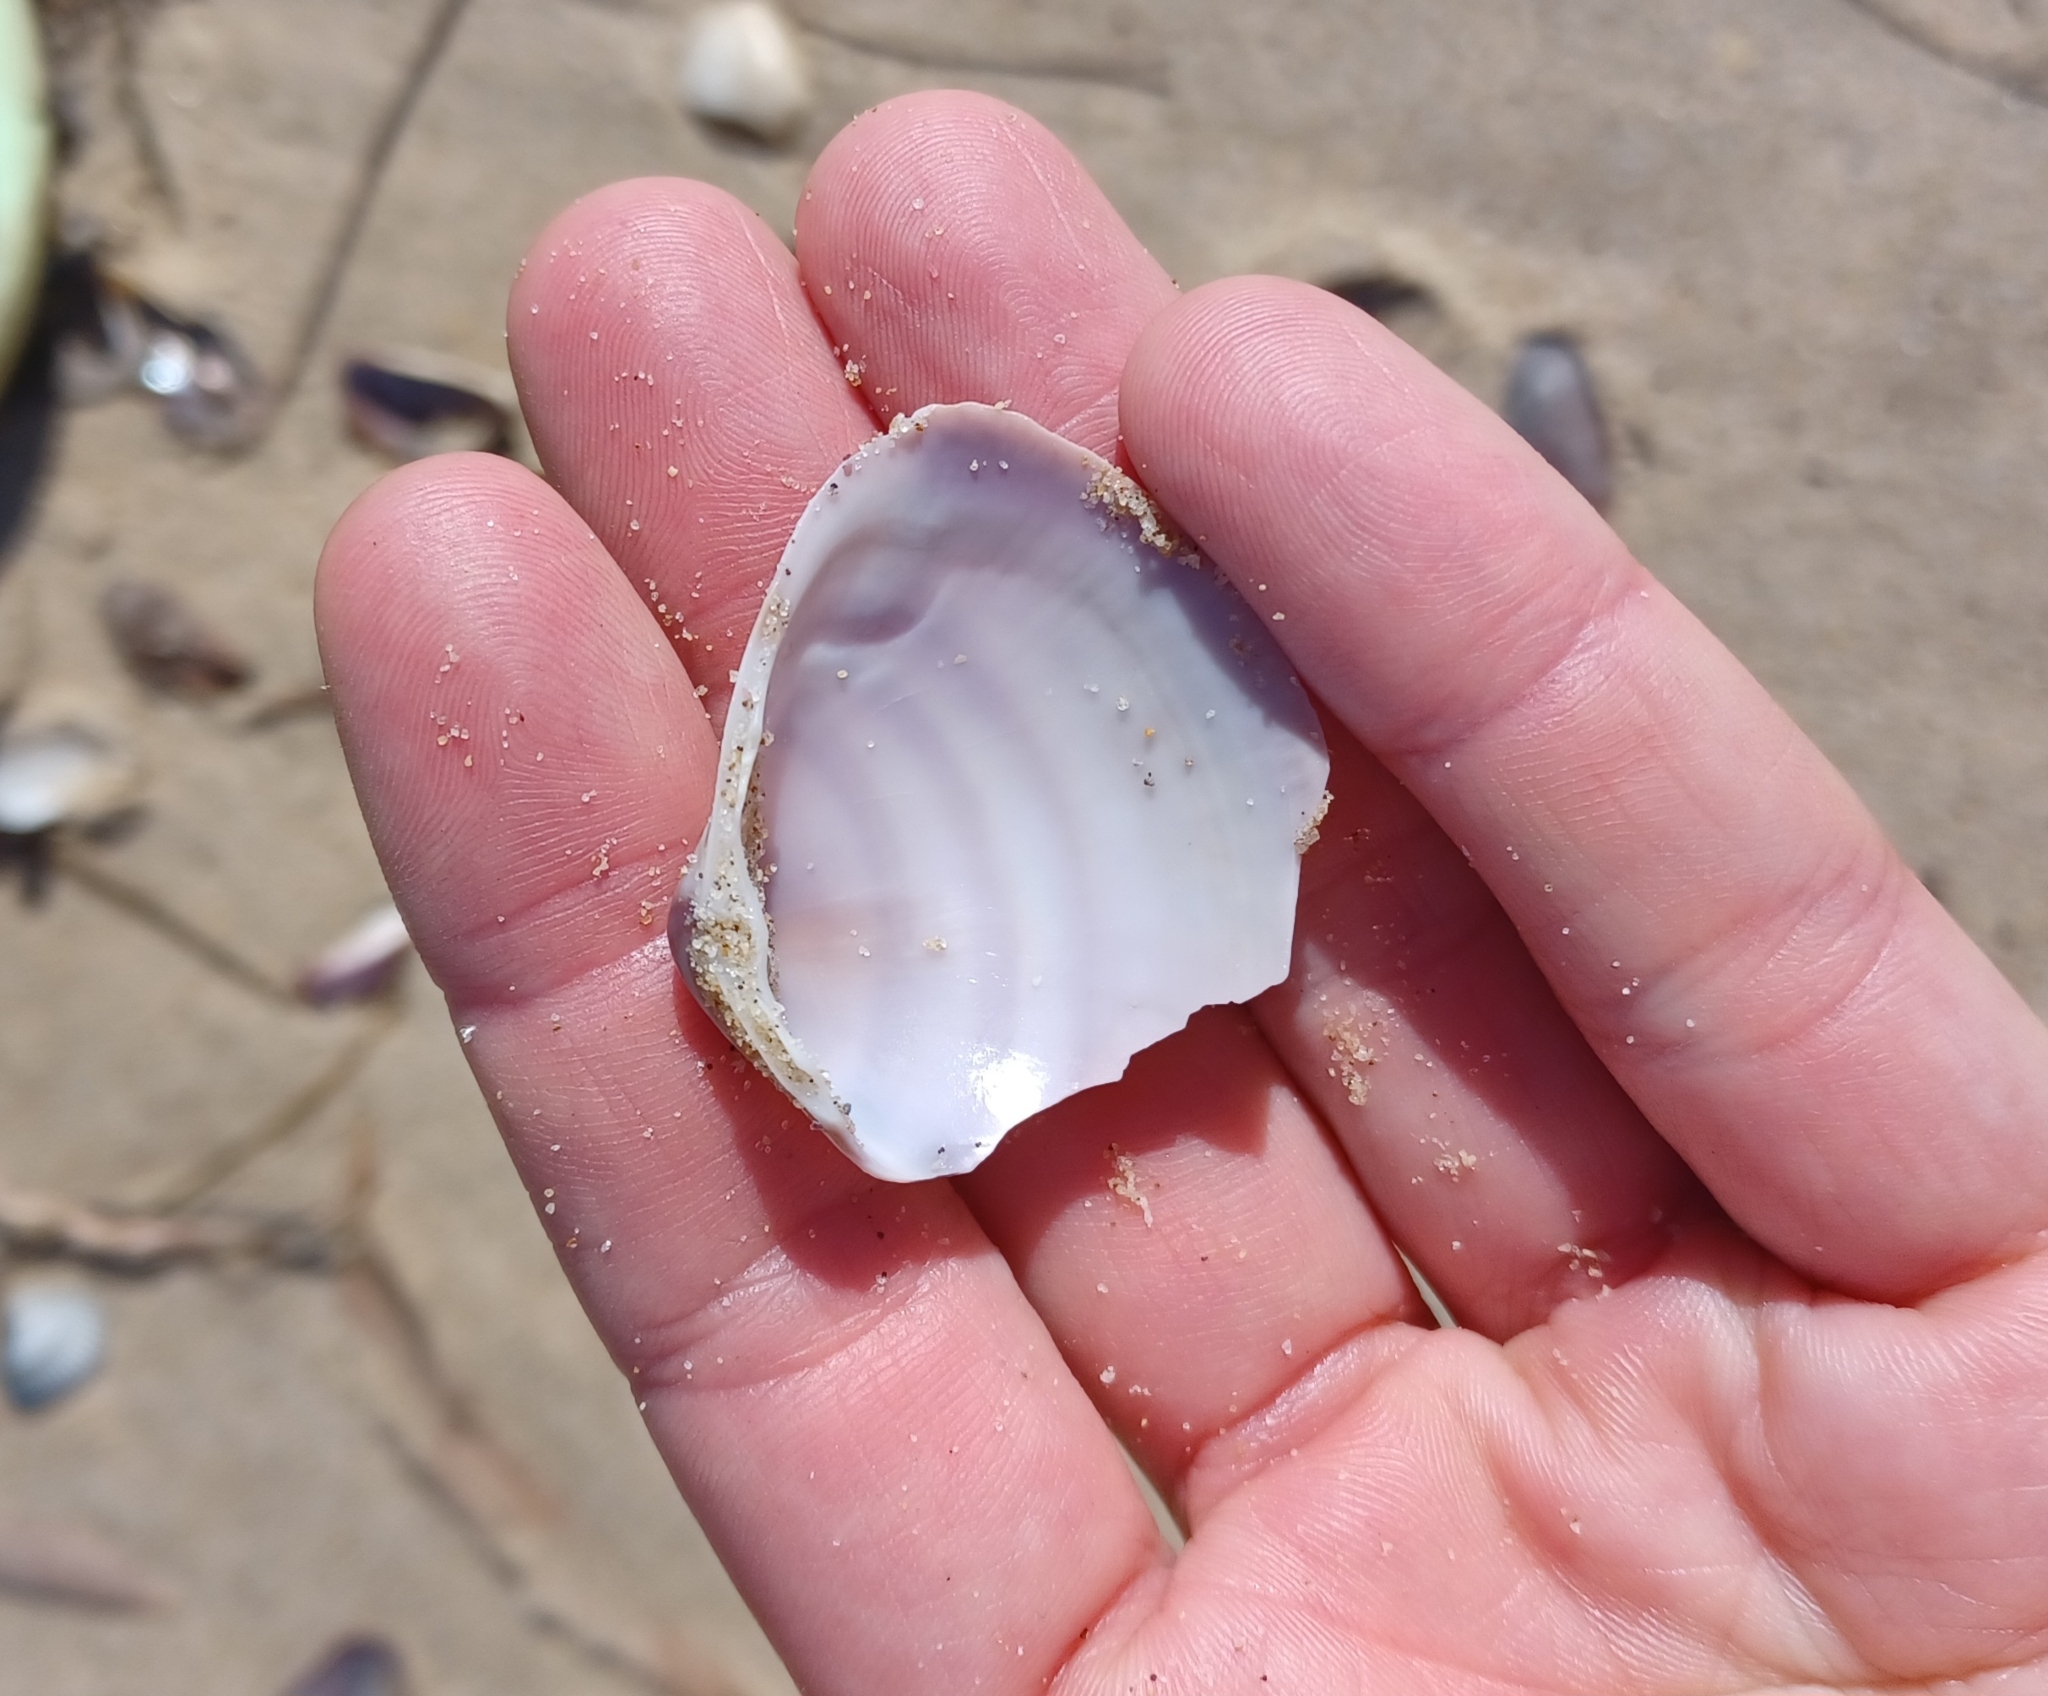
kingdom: Animalia
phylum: Mollusca
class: Bivalvia
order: Venerida
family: Mactridae
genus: Austromactra
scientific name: Austromactra contraria
